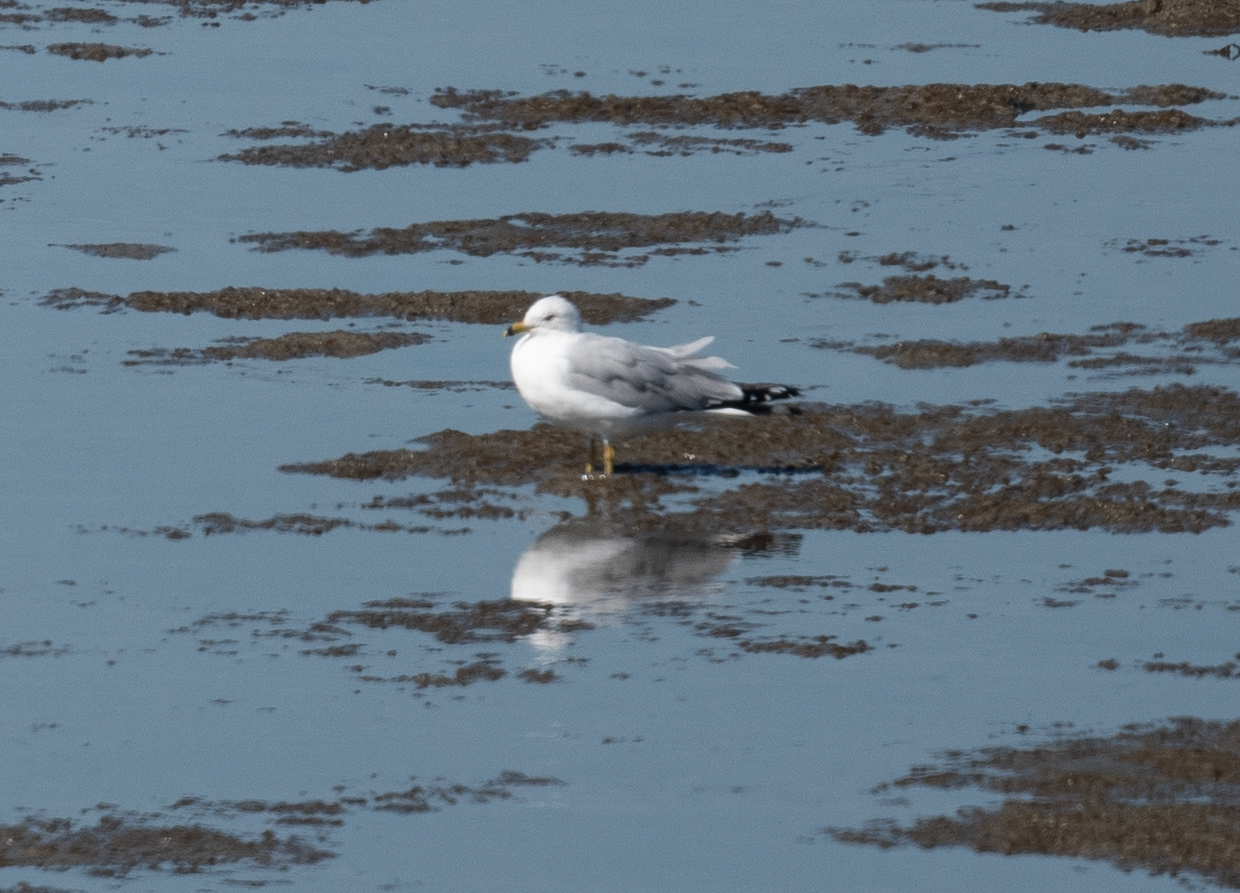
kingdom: Animalia
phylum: Chordata
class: Aves
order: Charadriiformes
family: Laridae
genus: Larus
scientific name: Larus delawarensis
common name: Ring-billed gull
